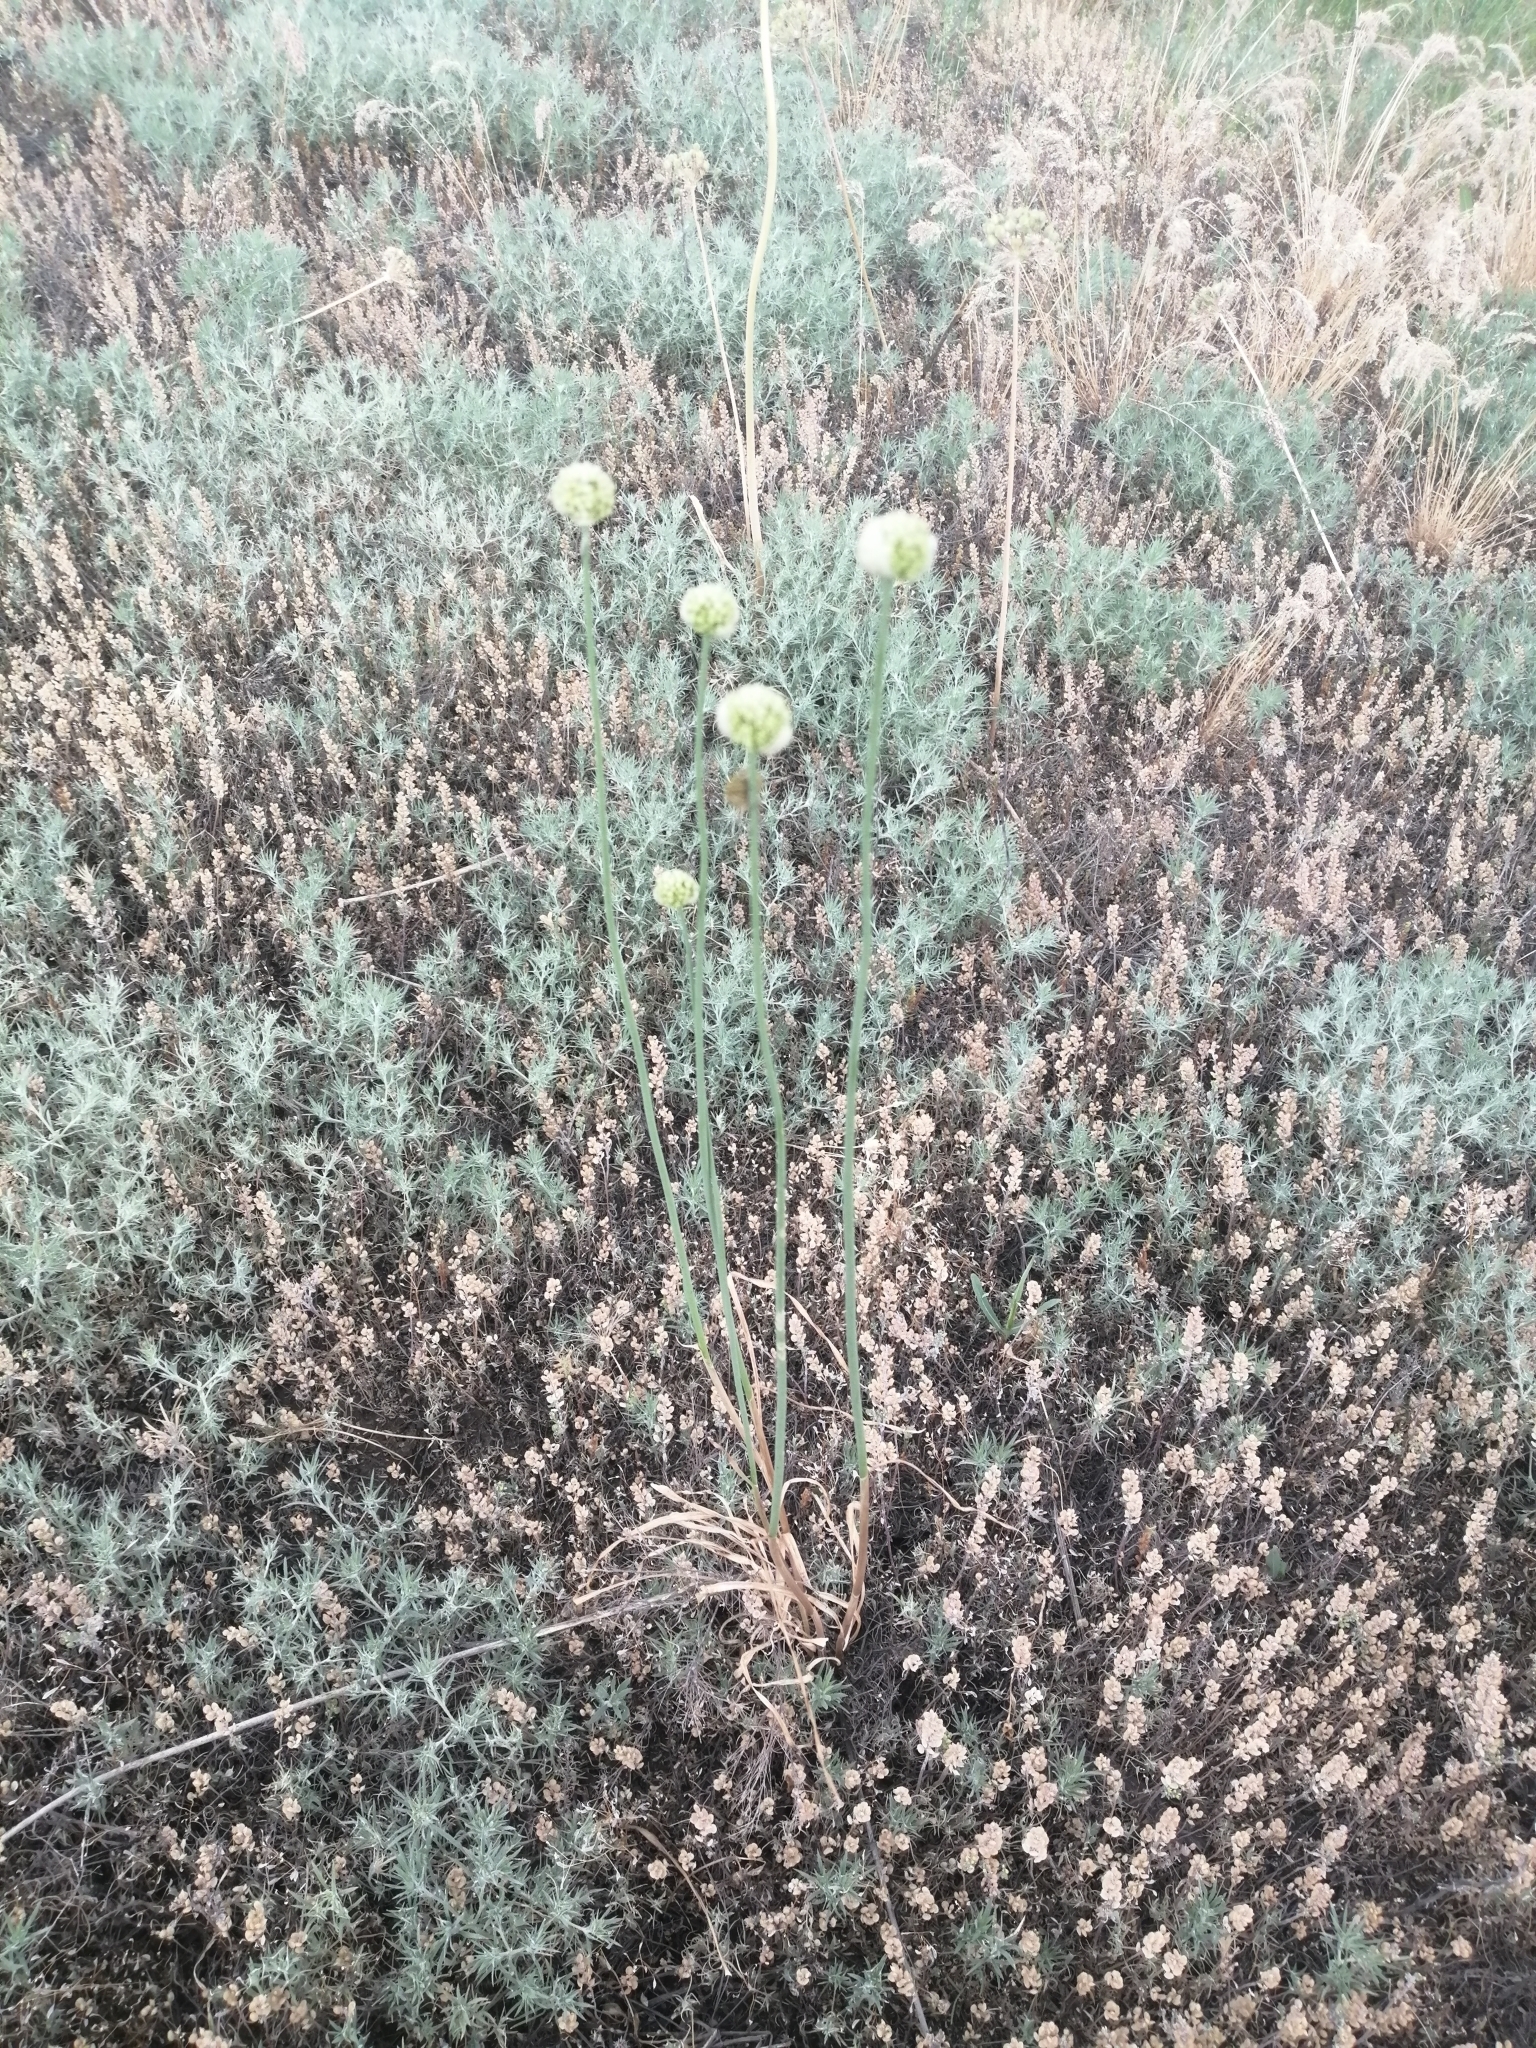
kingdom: Plantae
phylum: Tracheophyta
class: Liliopsida
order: Asparagales
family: Amaryllidaceae
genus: Allium
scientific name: Allium flavescens
